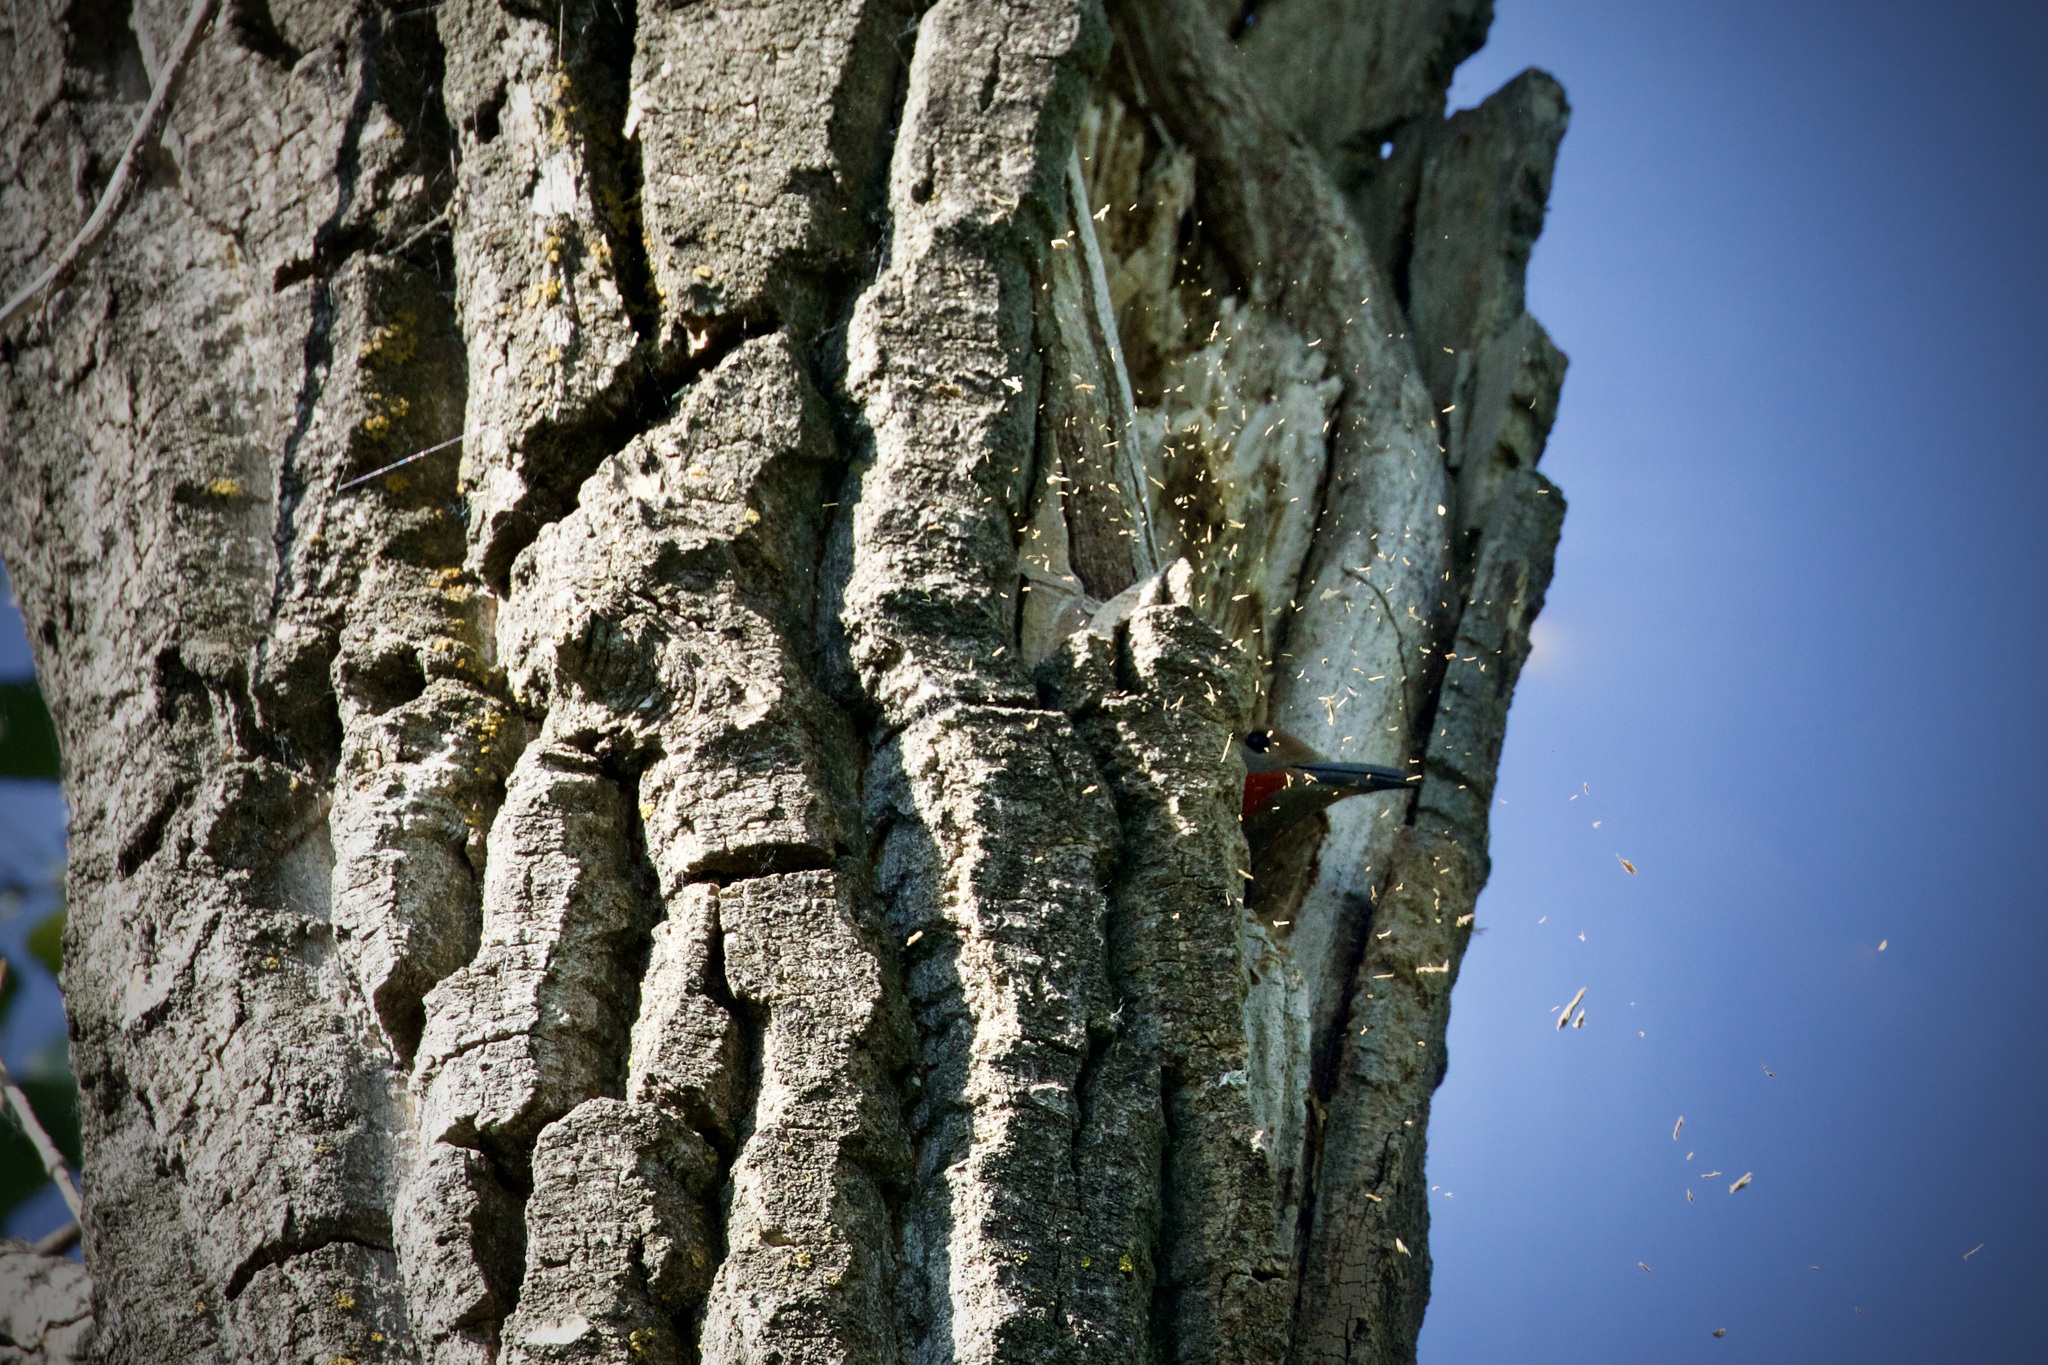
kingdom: Animalia
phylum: Chordata
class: Aves
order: Piciformes
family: Picidae
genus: Colaptes
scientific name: Colaptes auratus
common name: Northern flicker
